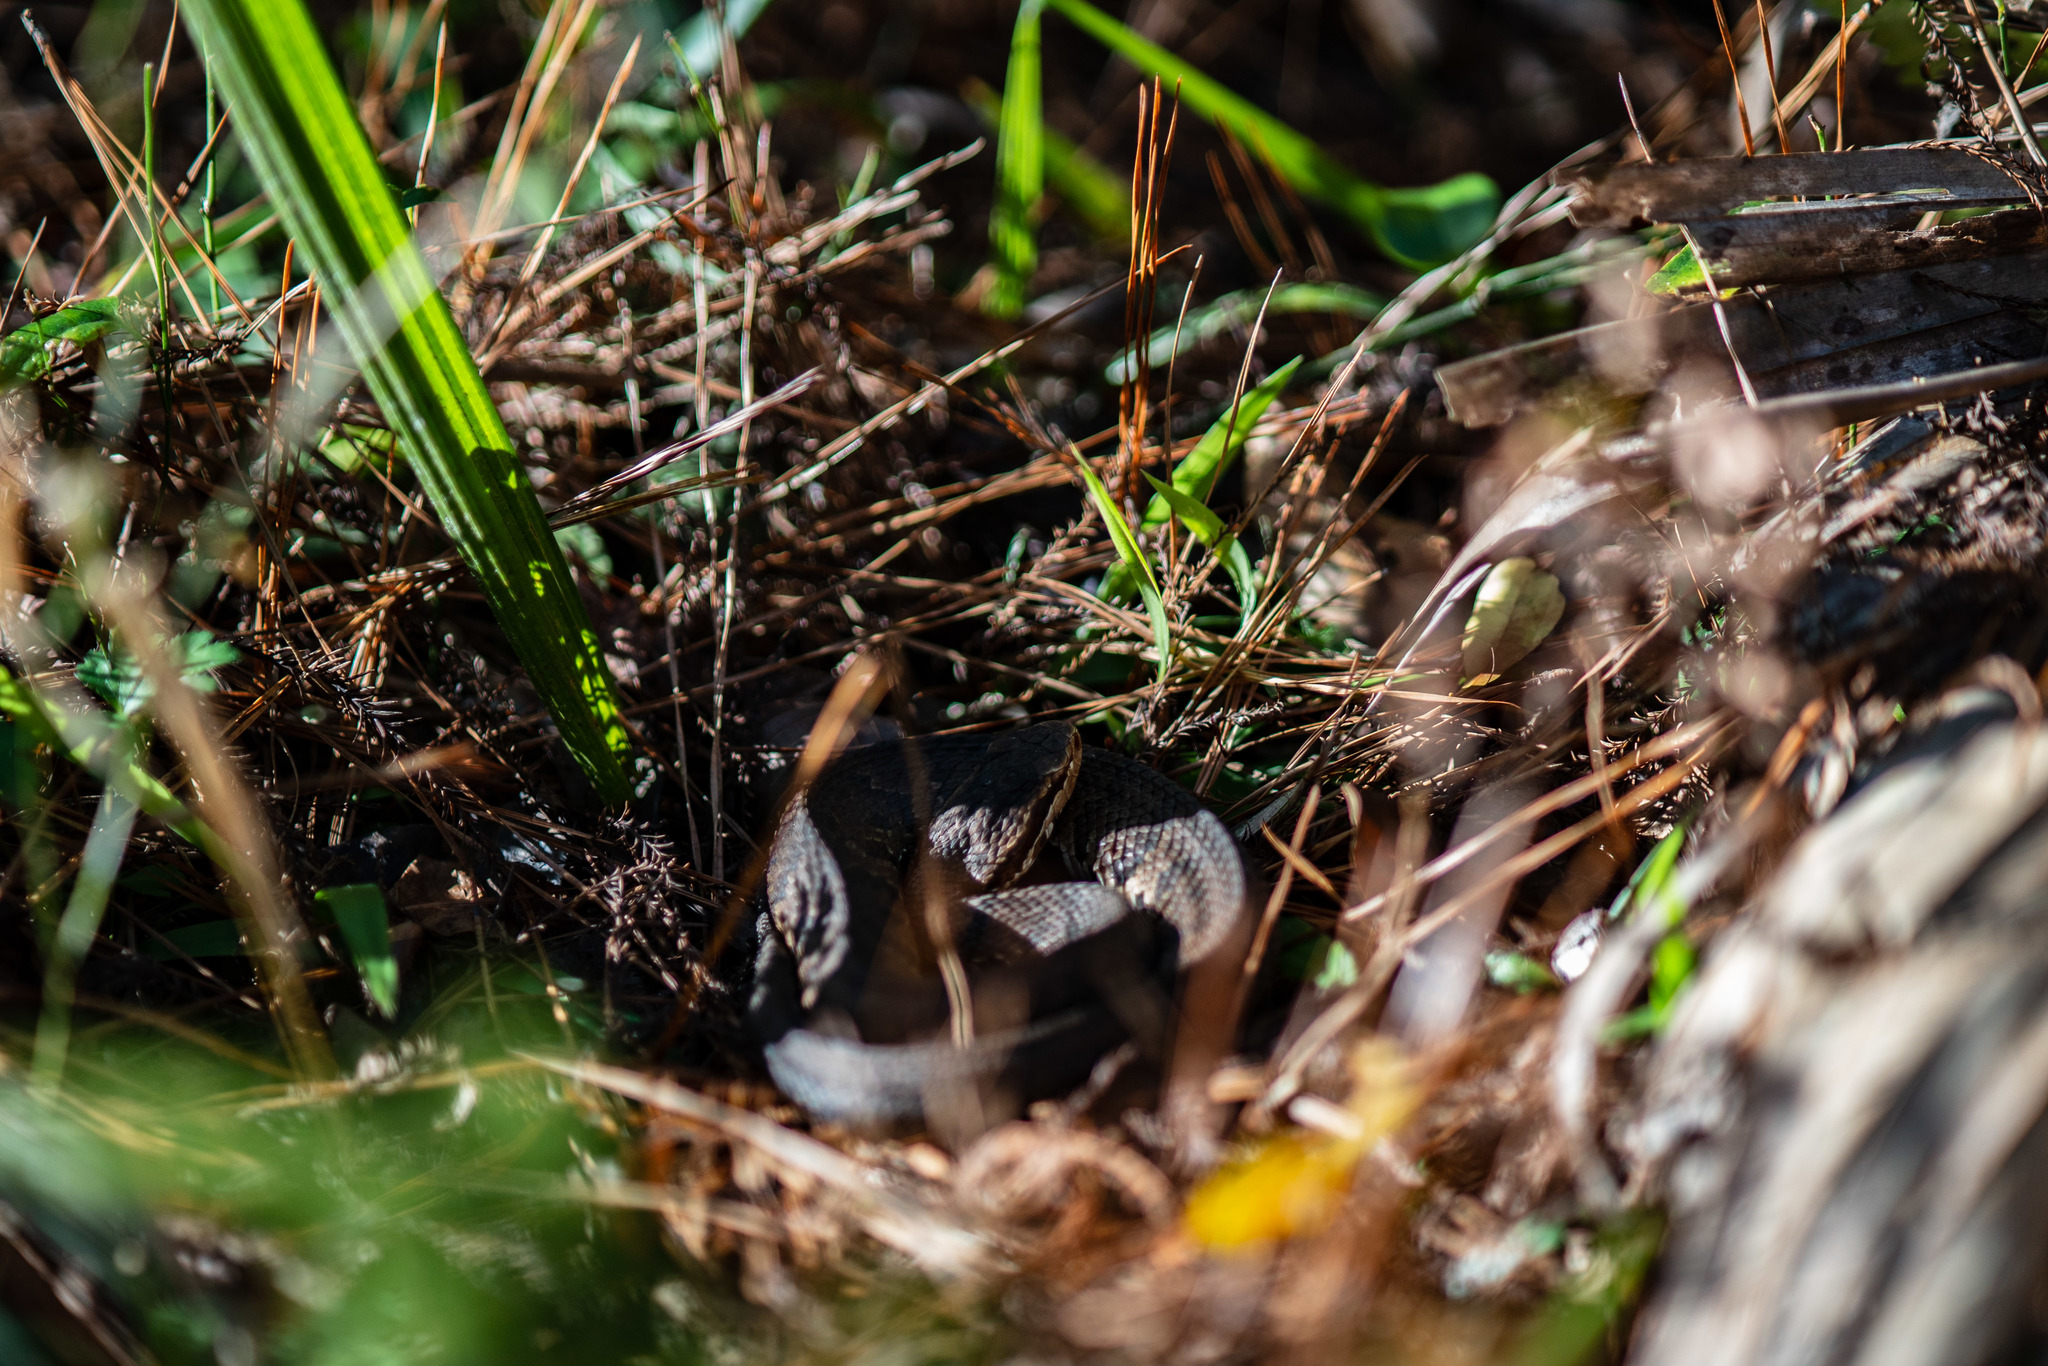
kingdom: Animalia
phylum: Chordata
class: Squamata
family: Viperidae
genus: Agkistrodon
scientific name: Agkistrodon conanti
